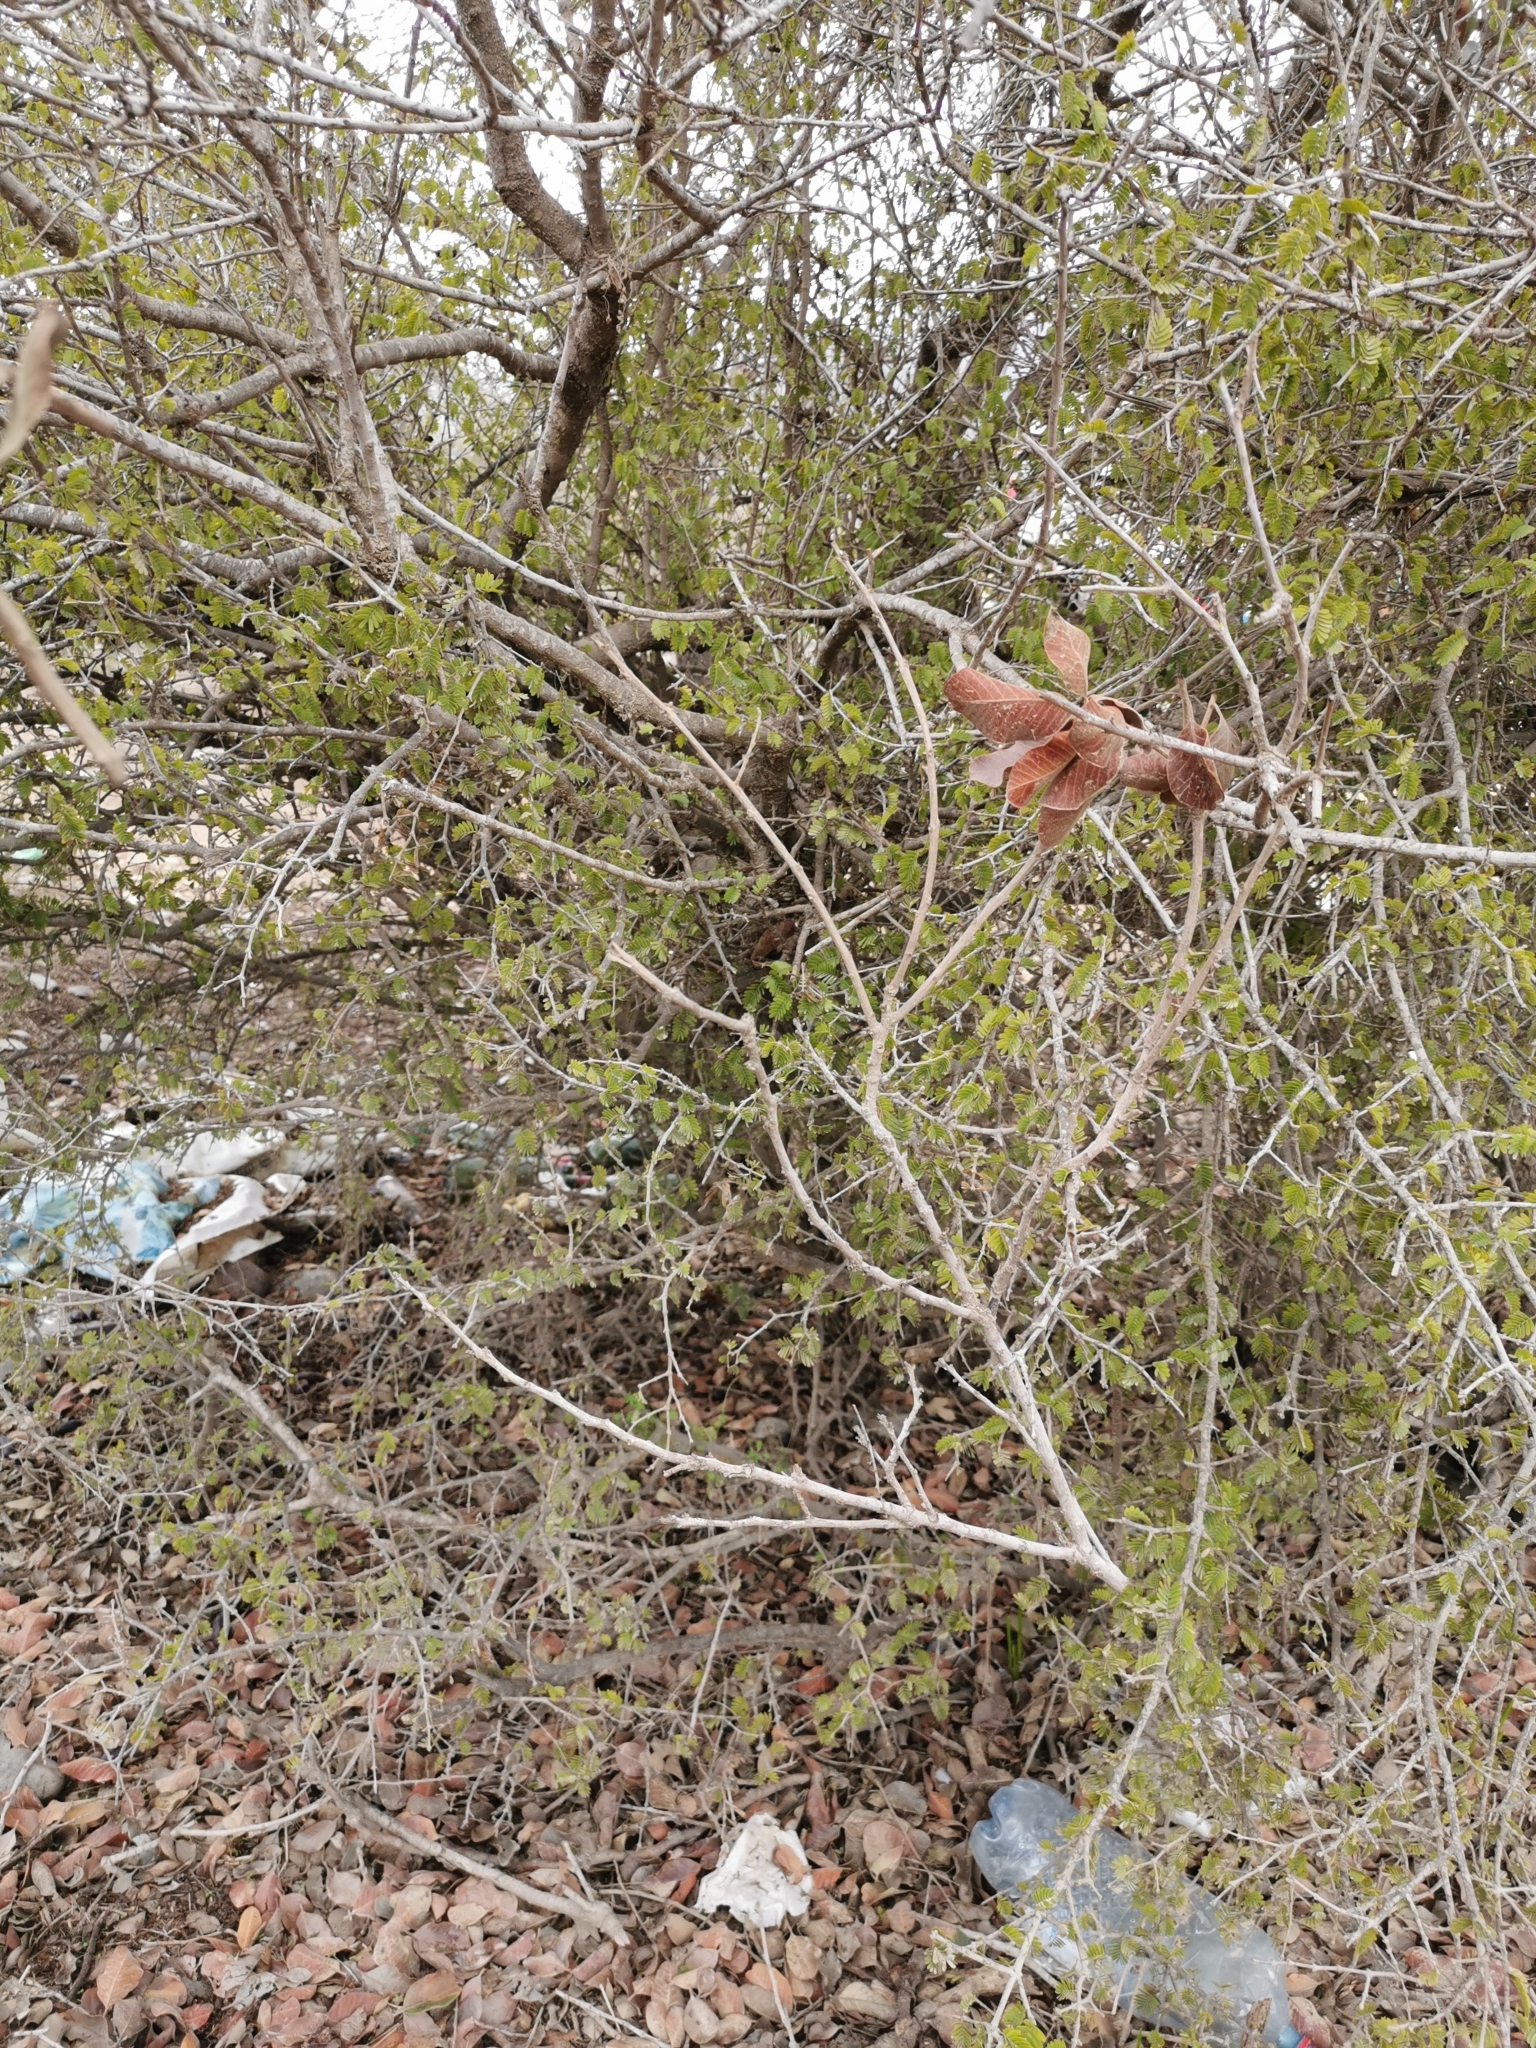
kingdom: Plantae
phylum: Tracheophyta
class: Magnoliopsida
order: Zygophyllales
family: Zygophyllaceae
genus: Porlieria
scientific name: Porlieria chilensis
